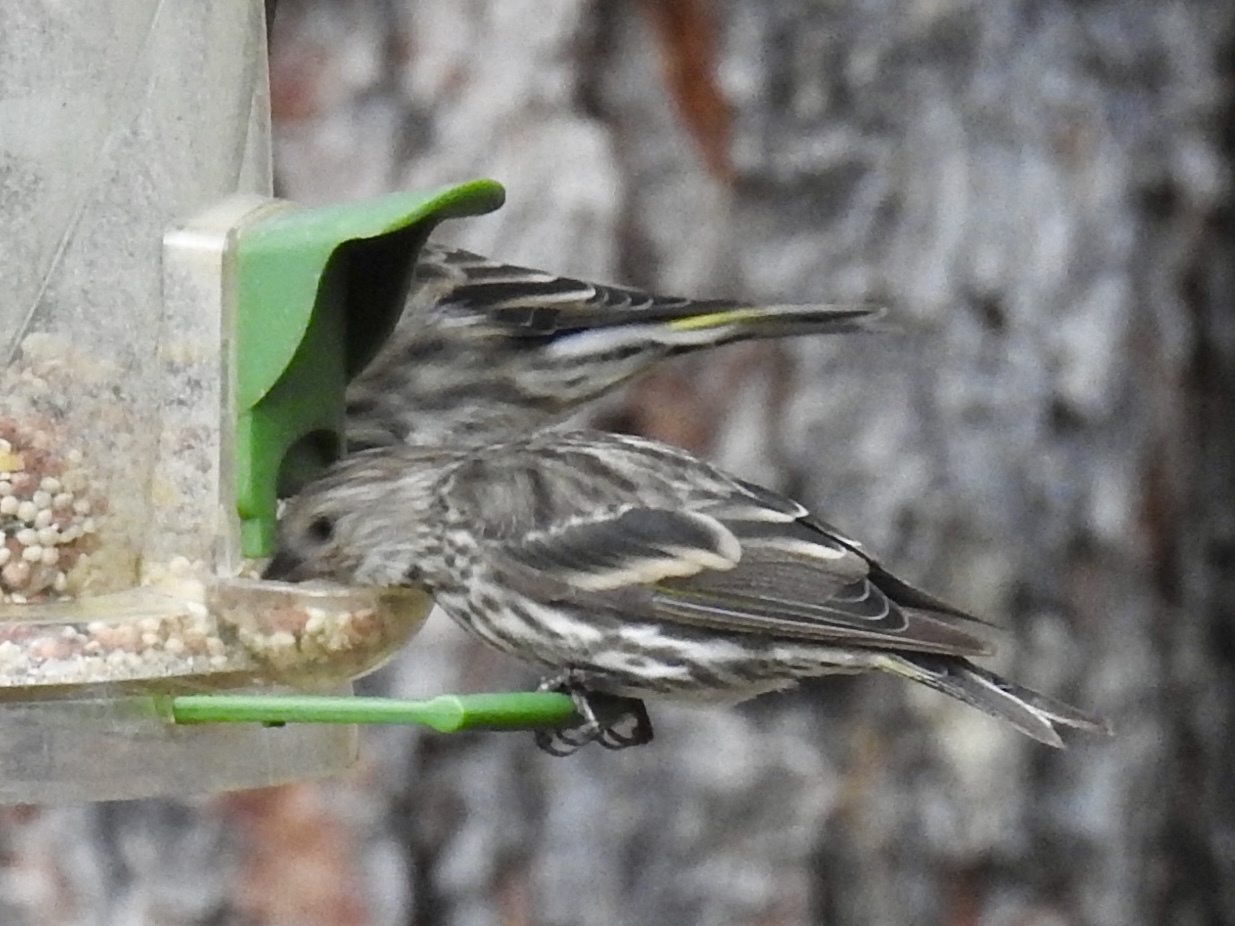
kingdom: Animalia
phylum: Chordata
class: Aves
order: Passeriformes
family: Fringillidae
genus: Spinus
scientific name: Spinus pinus
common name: Pine siskin
